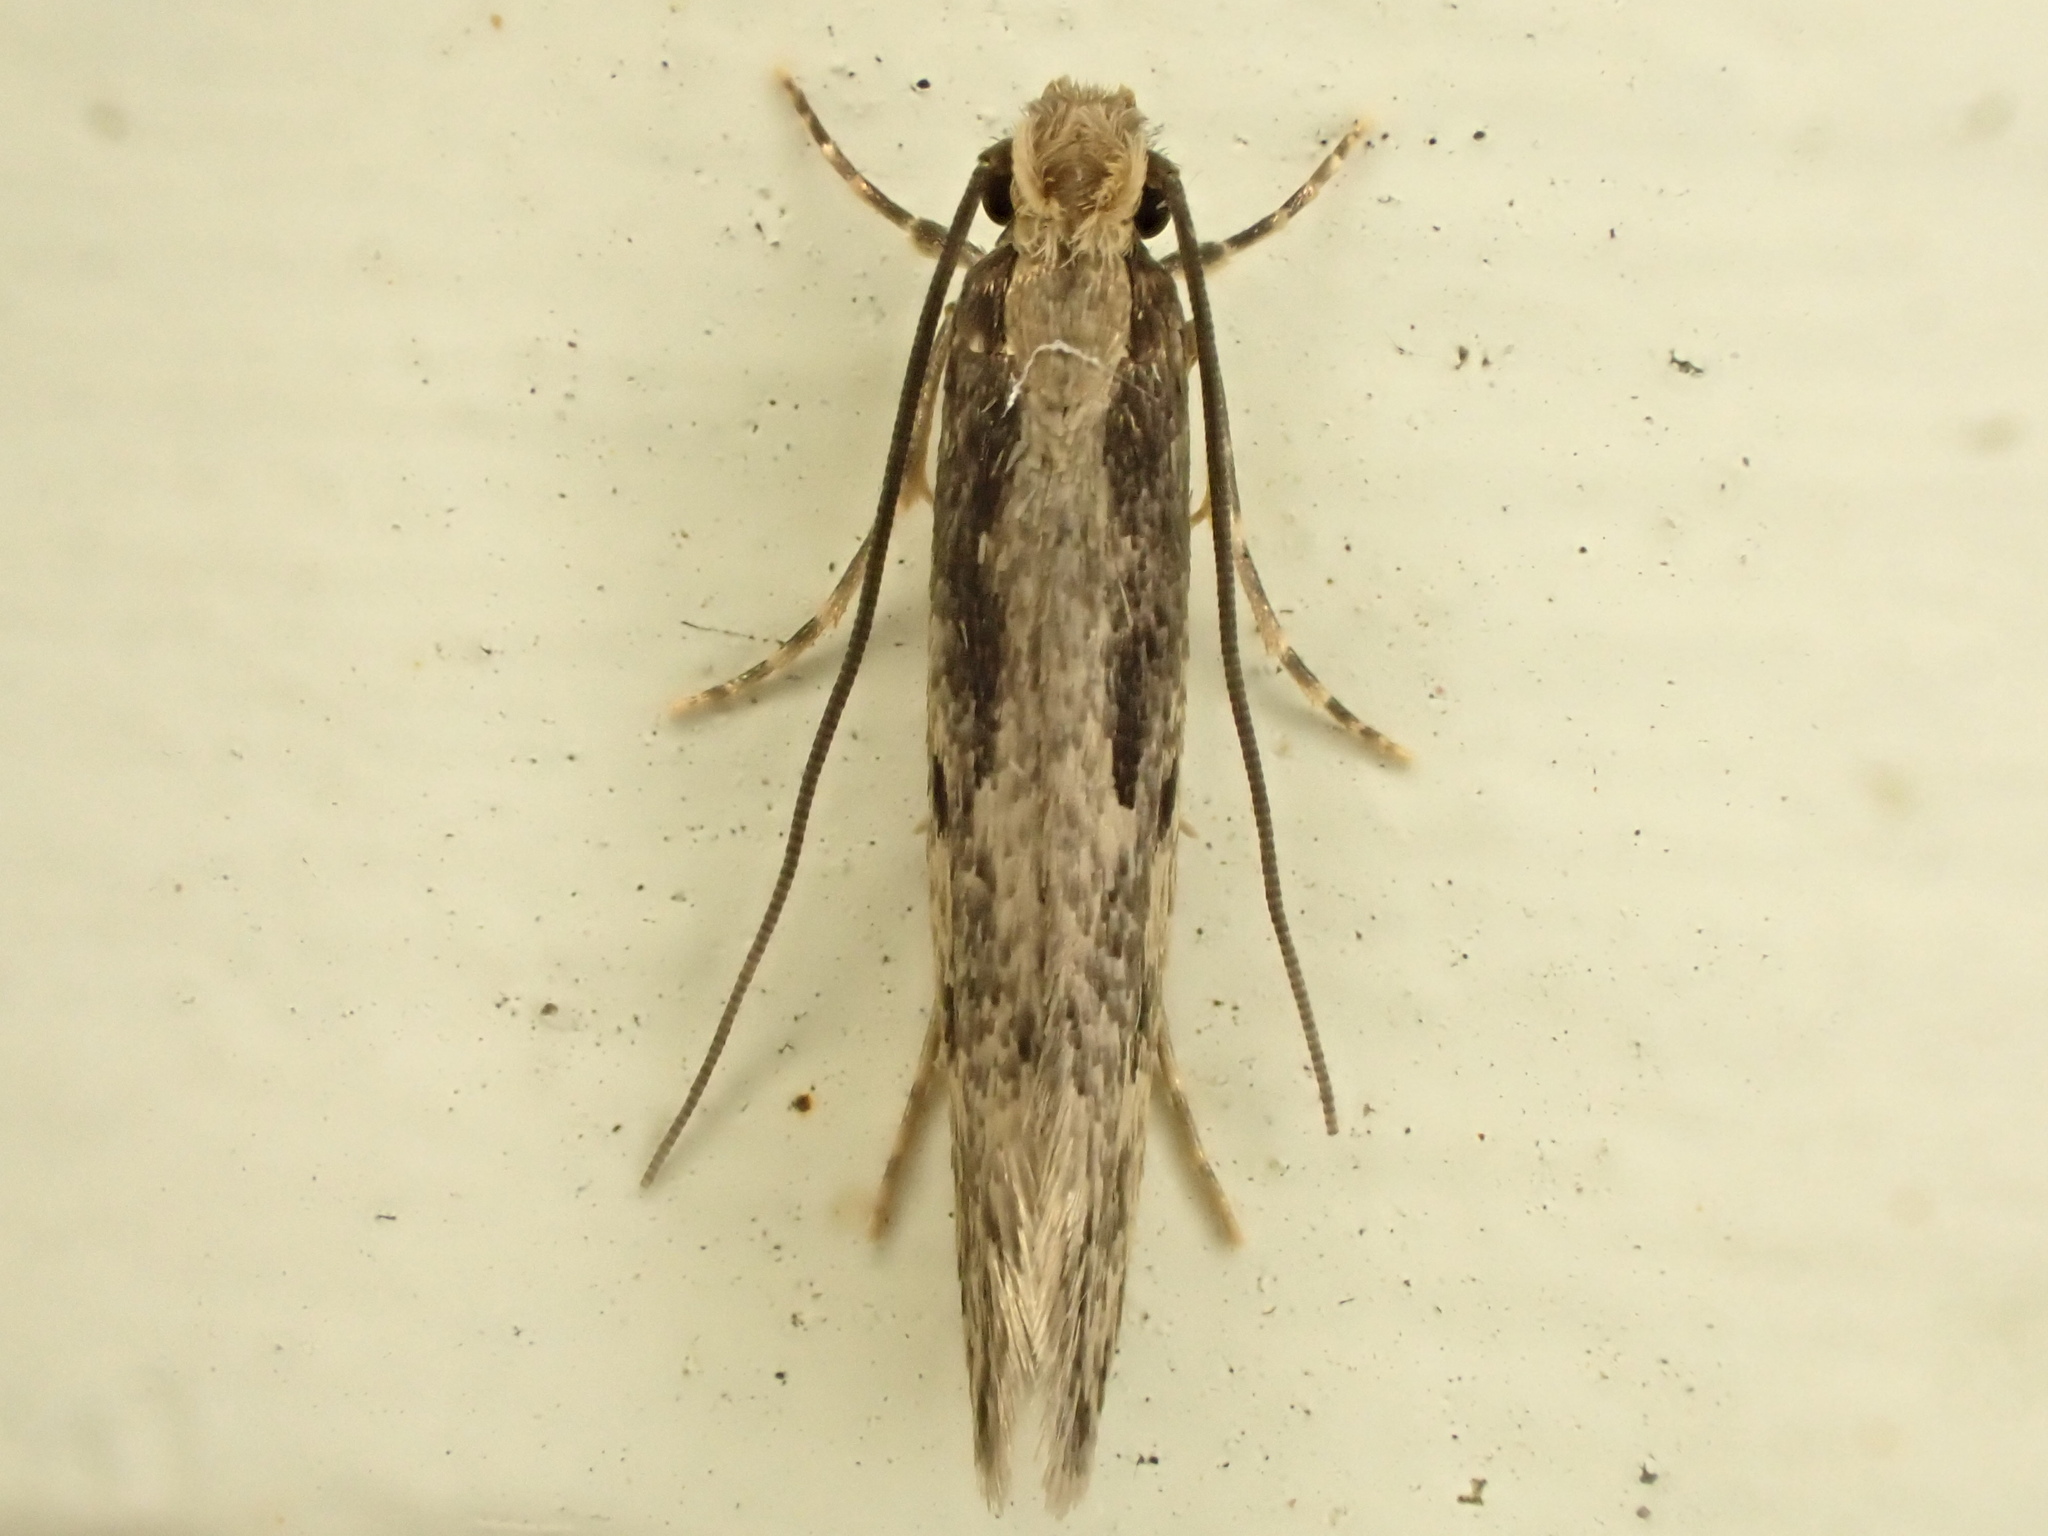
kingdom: Animalia
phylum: Arthropoda
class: Insecta
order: Lepidoptera
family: Tineidae
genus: Tinea
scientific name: Tinea pallescentella
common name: Large pale clothes moth
